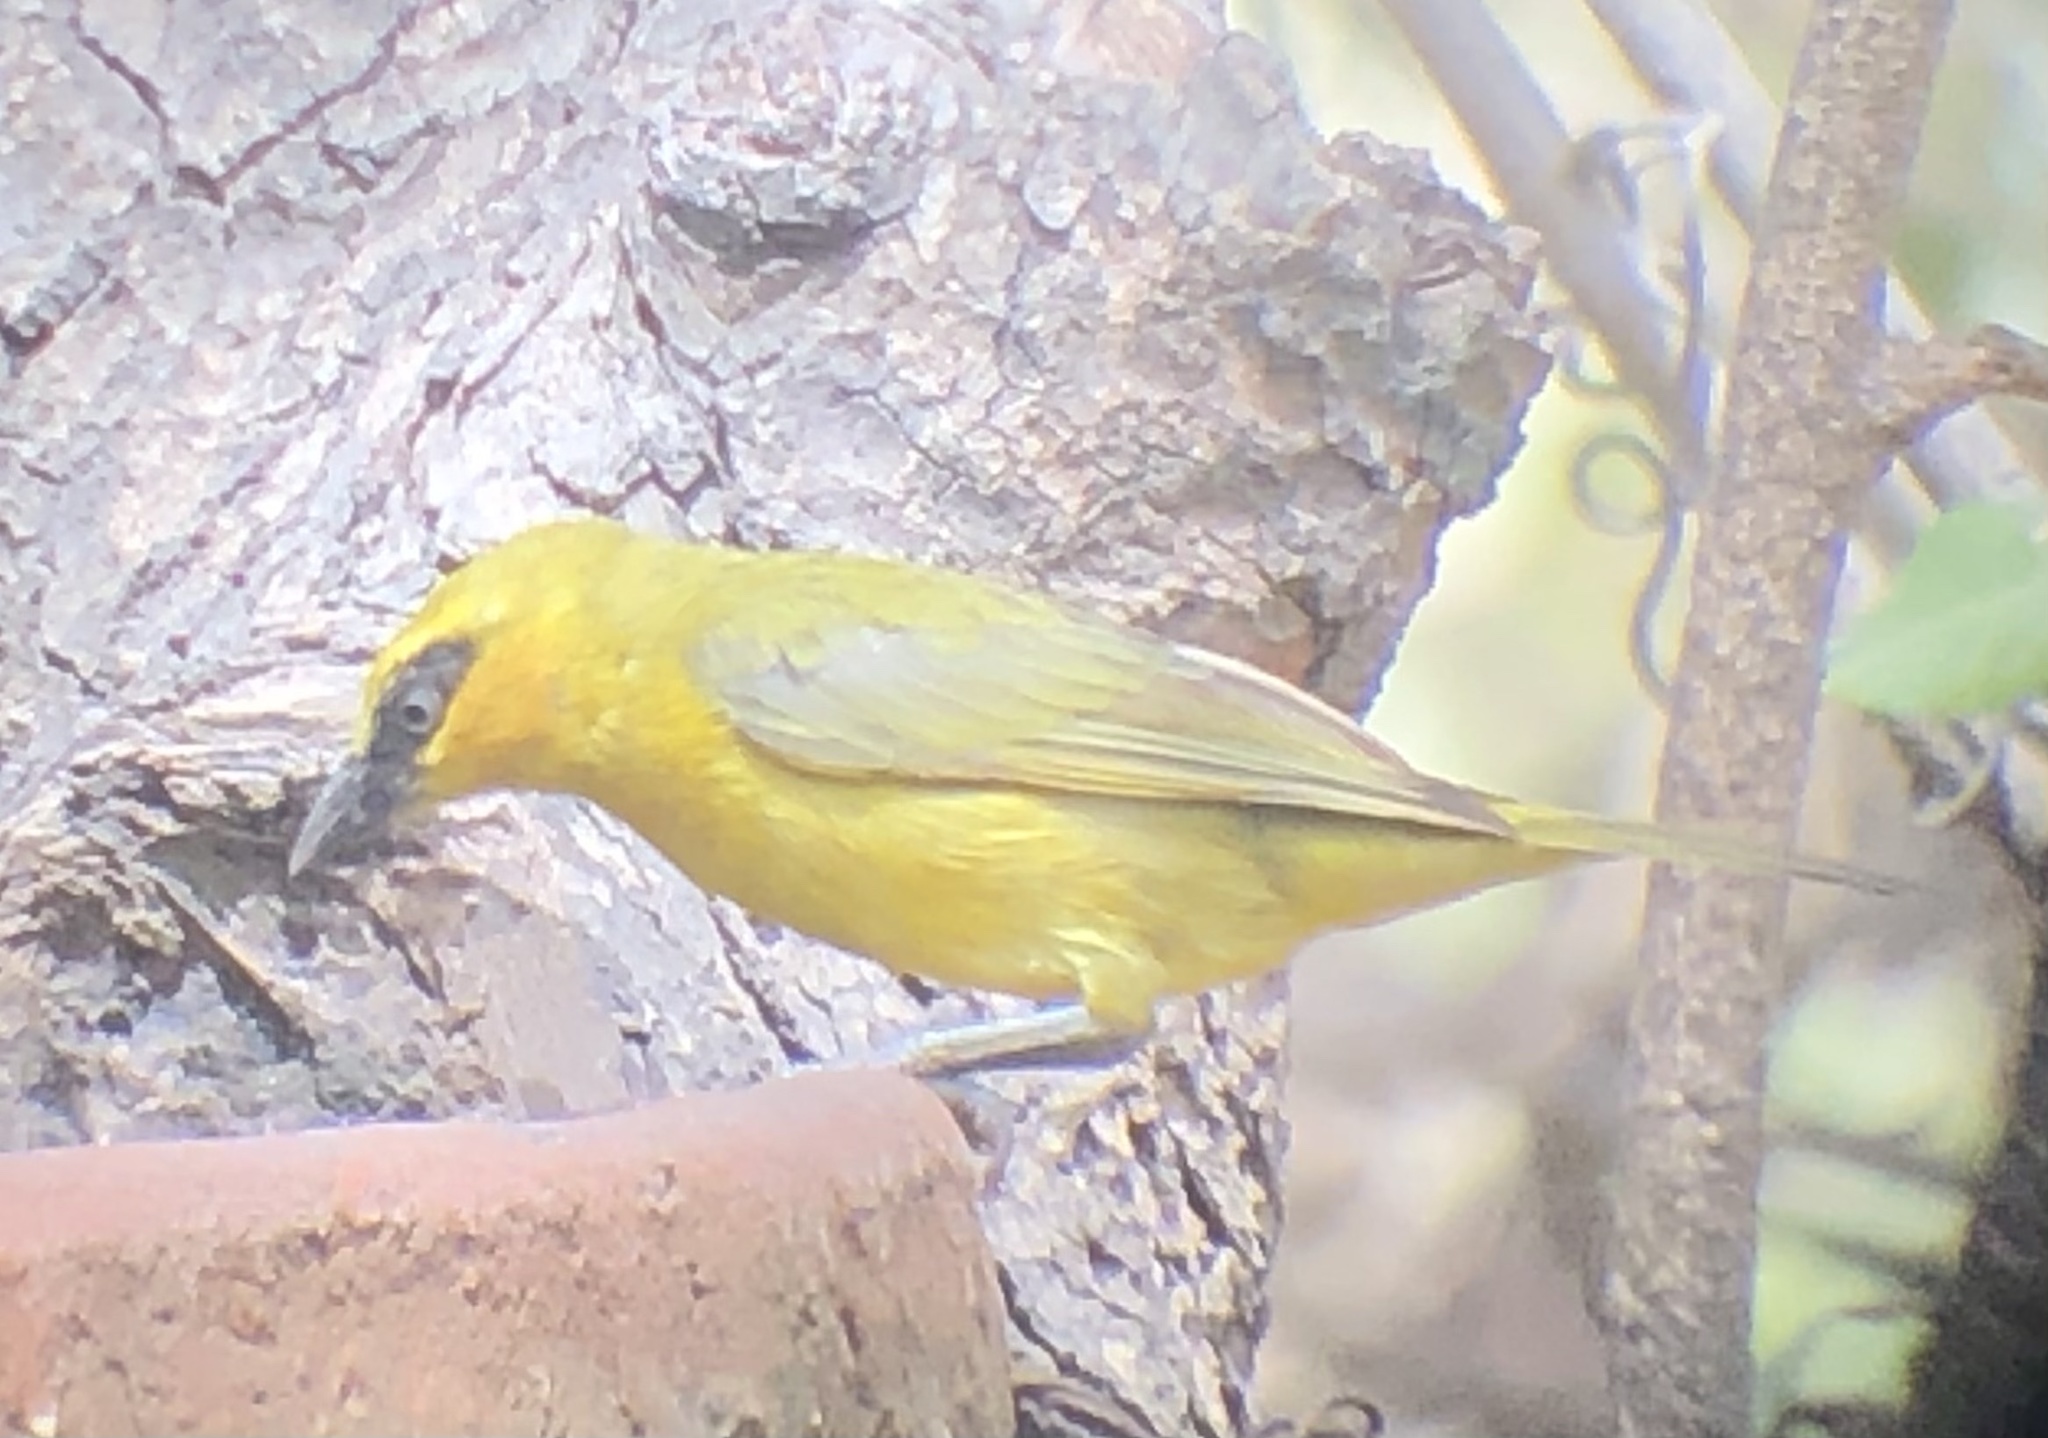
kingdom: Animalia
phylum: Chordata
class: Aves
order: Passeriformes
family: Ploceidae
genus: Ploceus
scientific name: Ploceus brachypterus
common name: Olive-naped weaver
